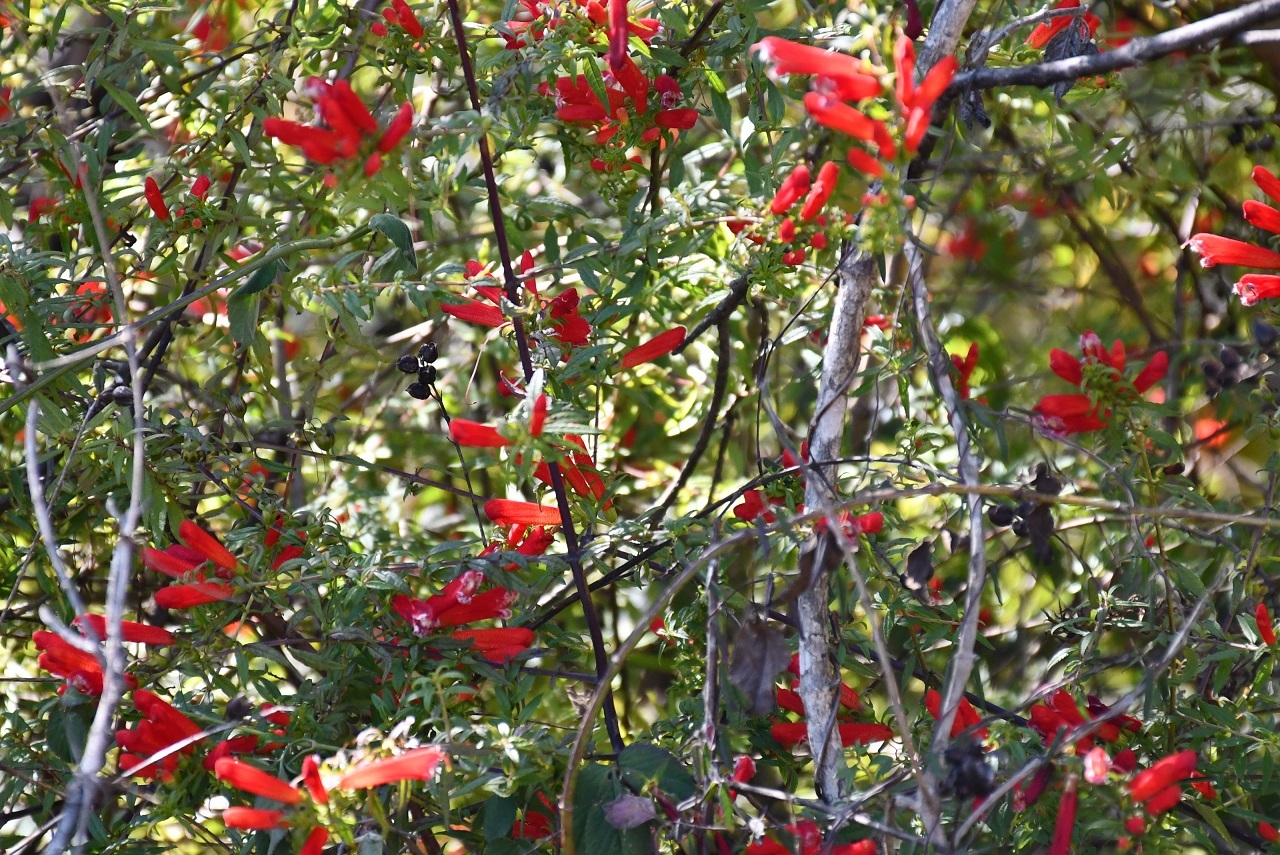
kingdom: Plantae
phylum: Tracheophyta
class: Magnoliopsida
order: Lamiales
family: Orobanchaceae
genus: Lamourouxia
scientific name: Lamourouxia lanceolata
